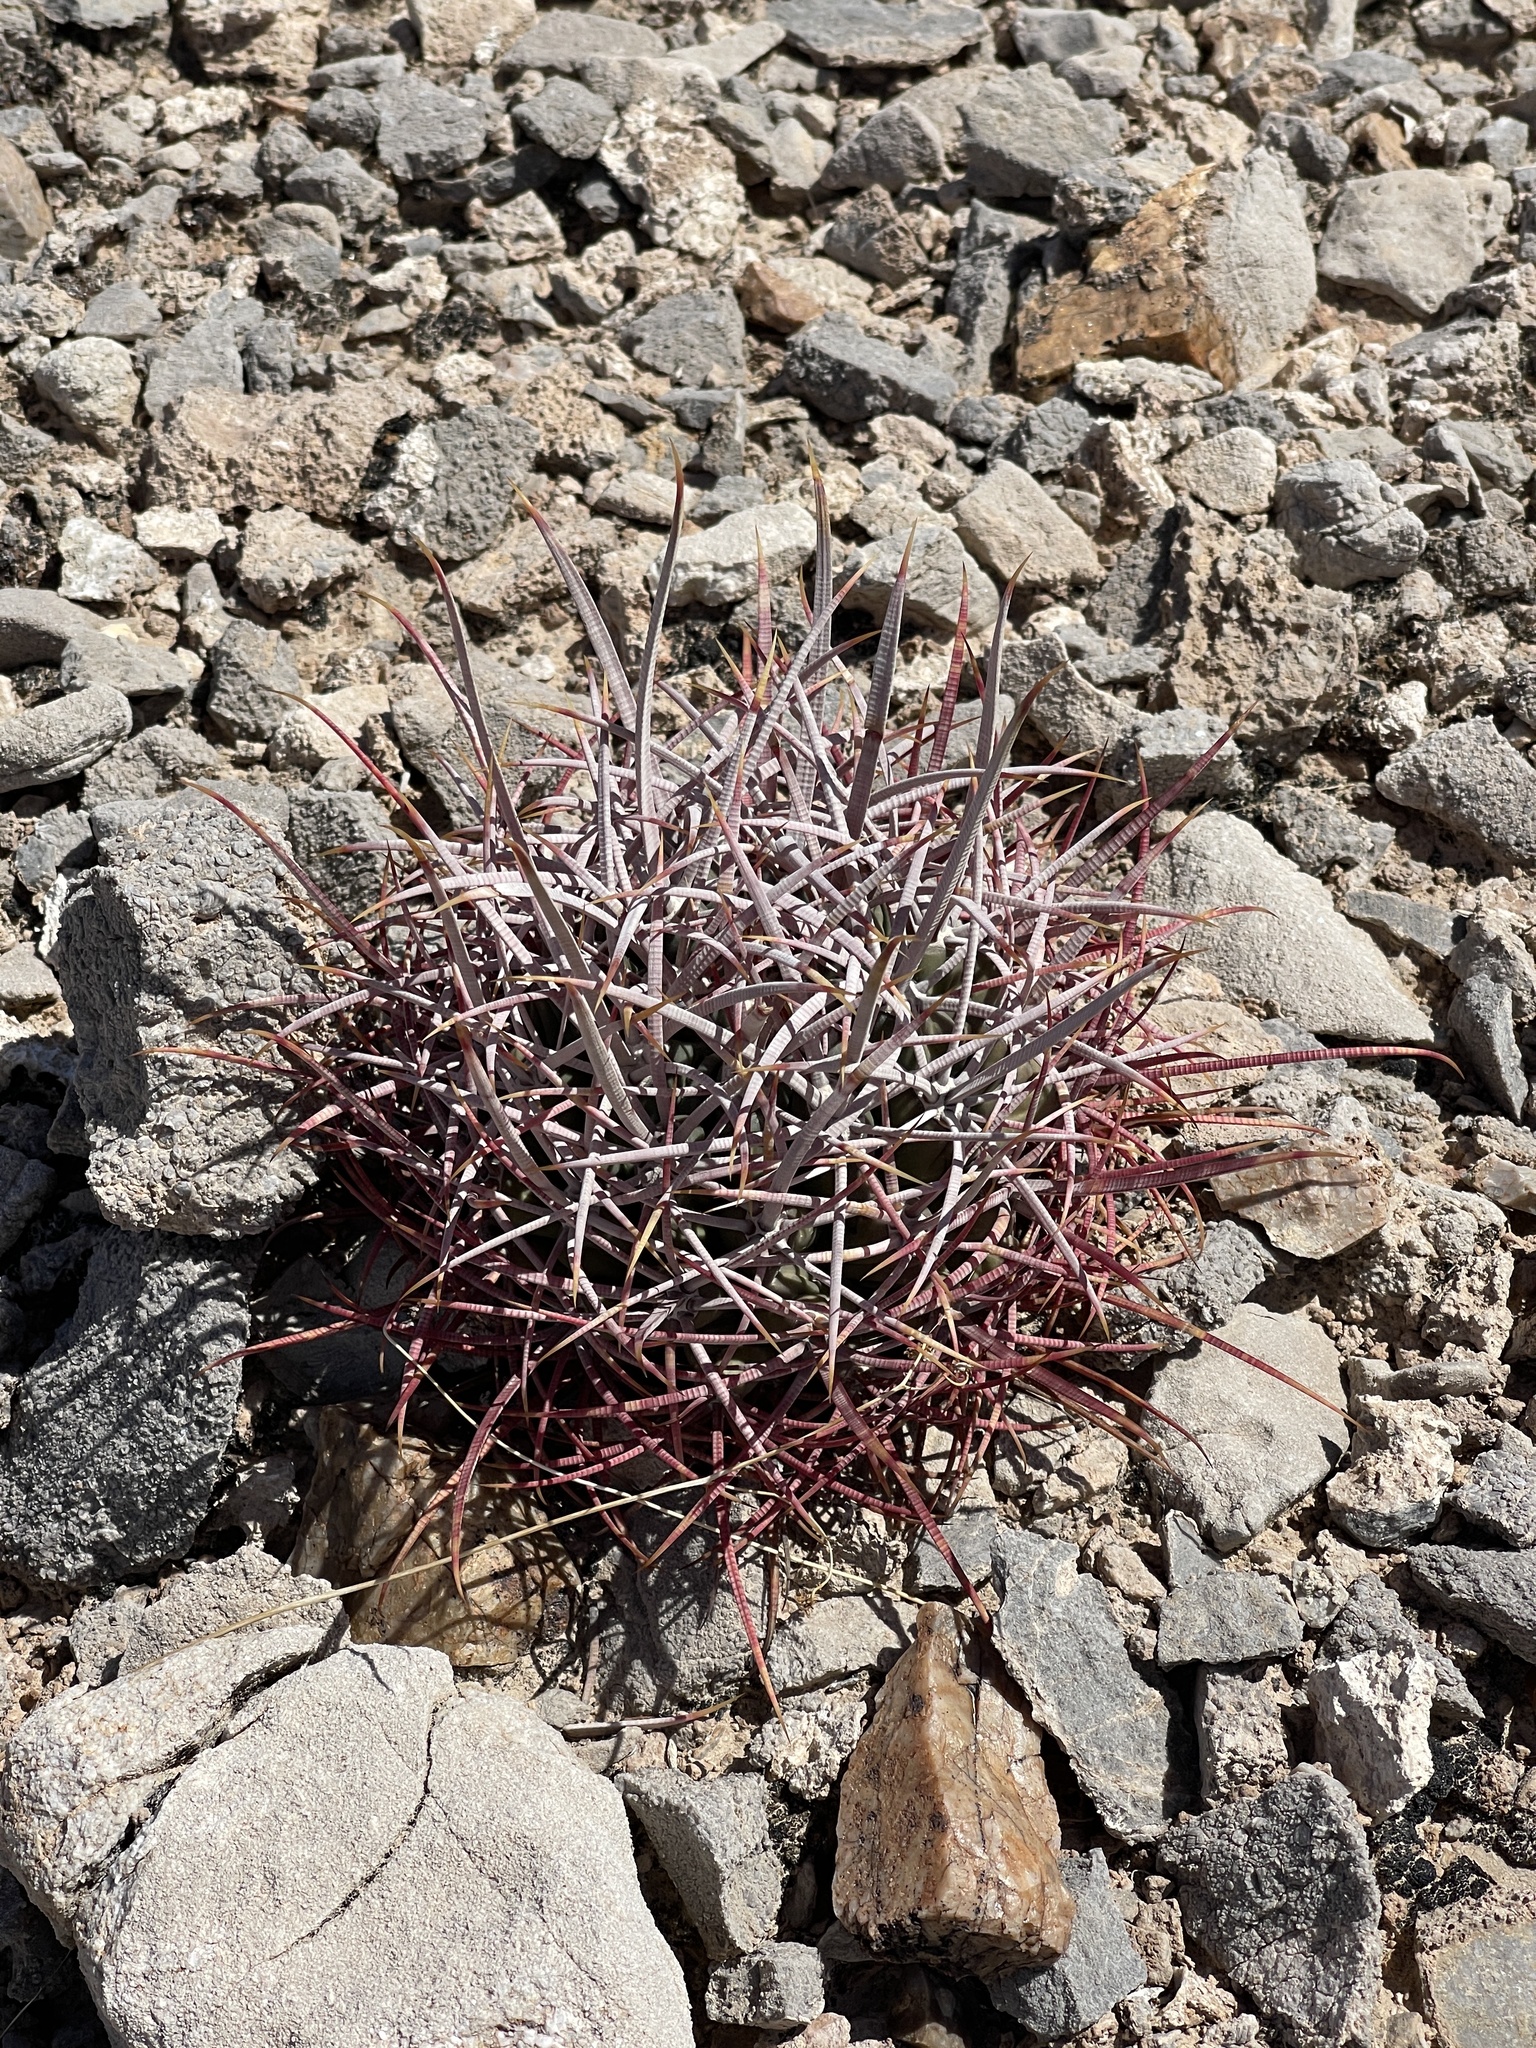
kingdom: Plantae
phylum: Tracheophyta
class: Magnoliopsida
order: Caryophyllales
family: Cactaceae
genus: Echinocactus
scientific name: Echinocactus polycephalus
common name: Cottontop cactus
